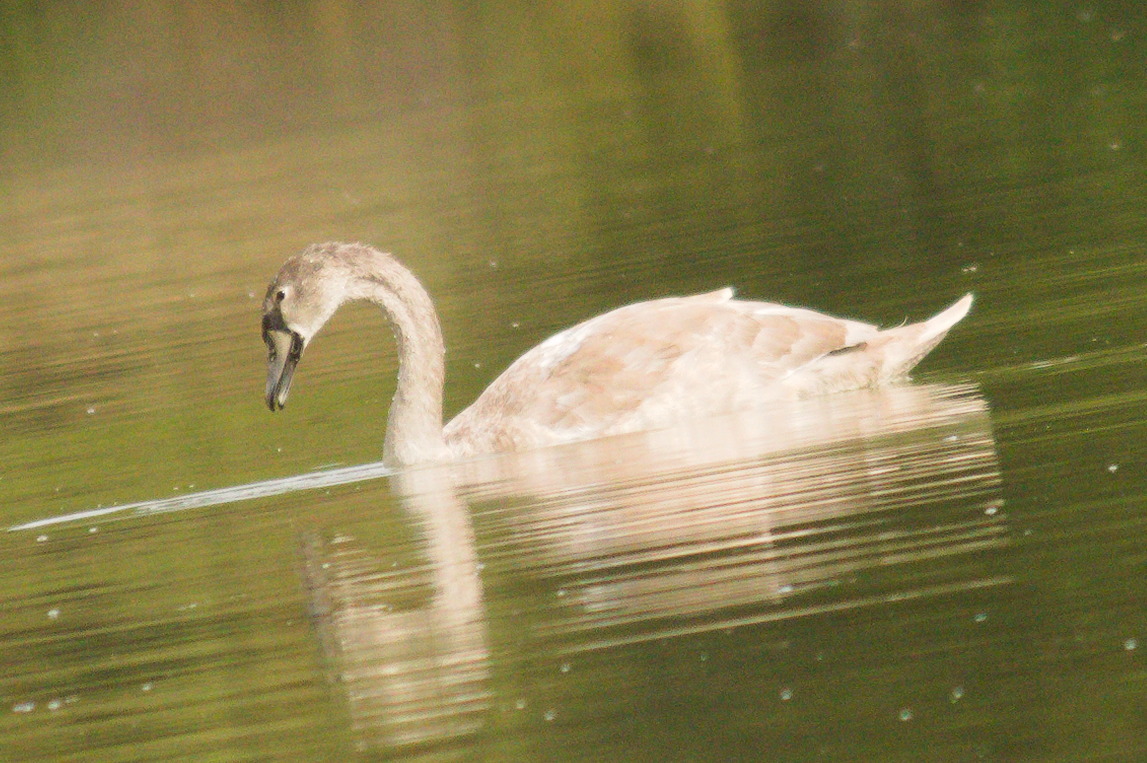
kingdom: Animalia
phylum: Chordata
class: Aves
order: Anseriformes
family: Anatidae
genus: Cygnus
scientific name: Cygnus olor
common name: Mute swan
